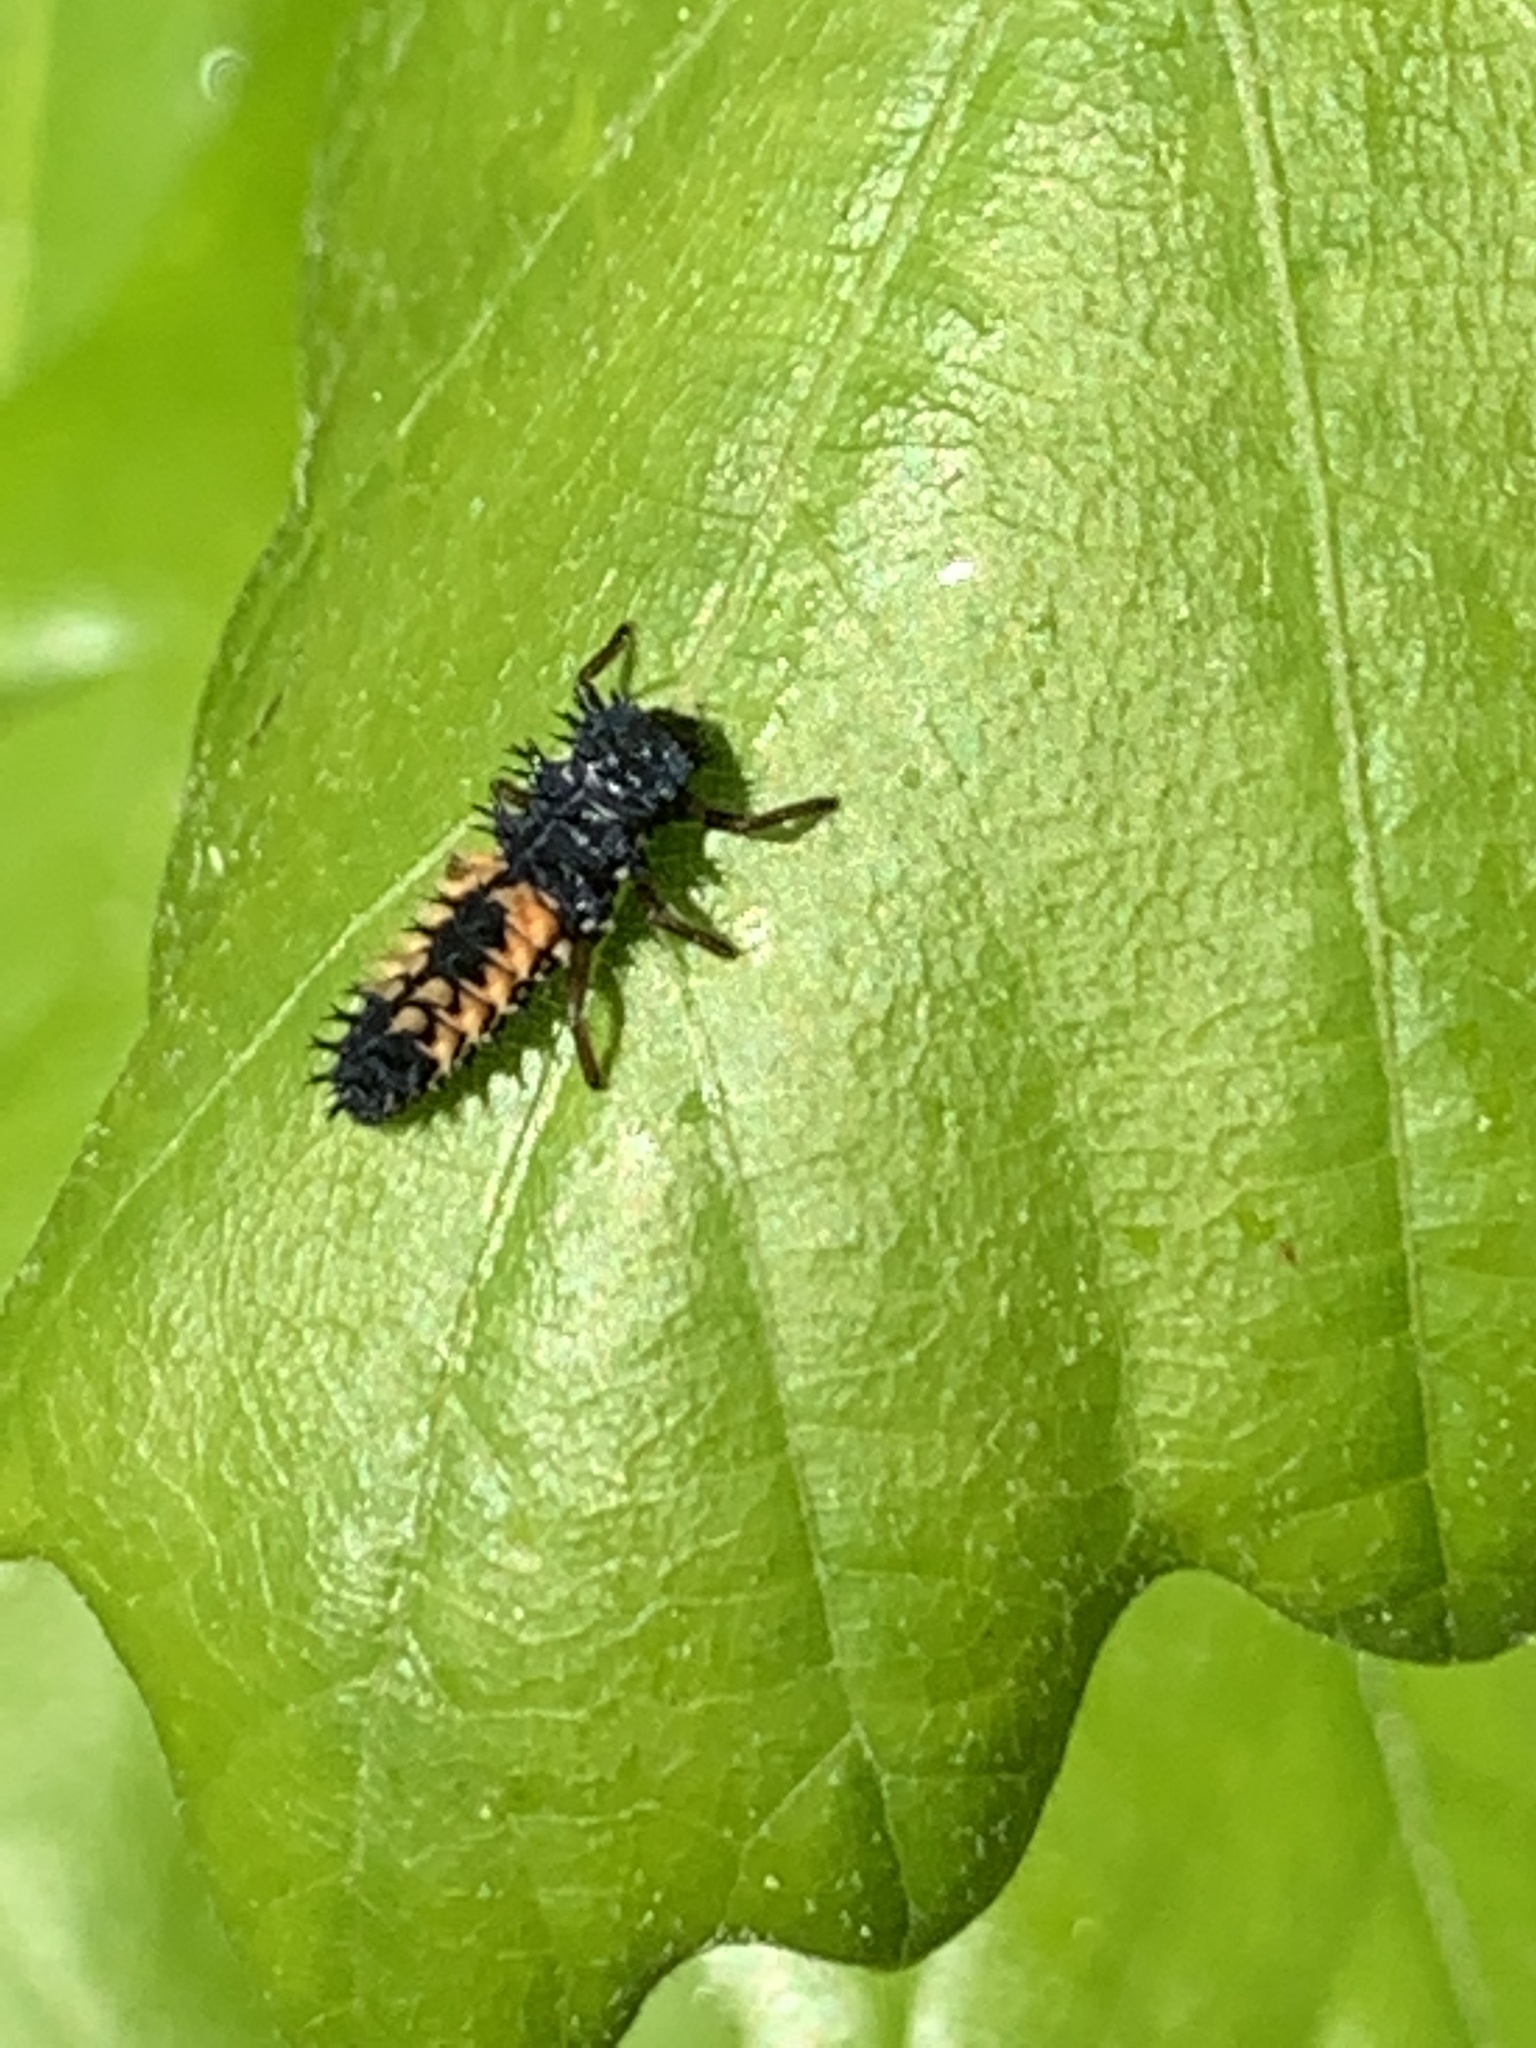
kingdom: Animalia
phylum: Arthropoda
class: Insecta
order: Coleoptera
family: Coccinellidae
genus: Harmonia
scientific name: Harmonia axyridis
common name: Harlequin ladybird
